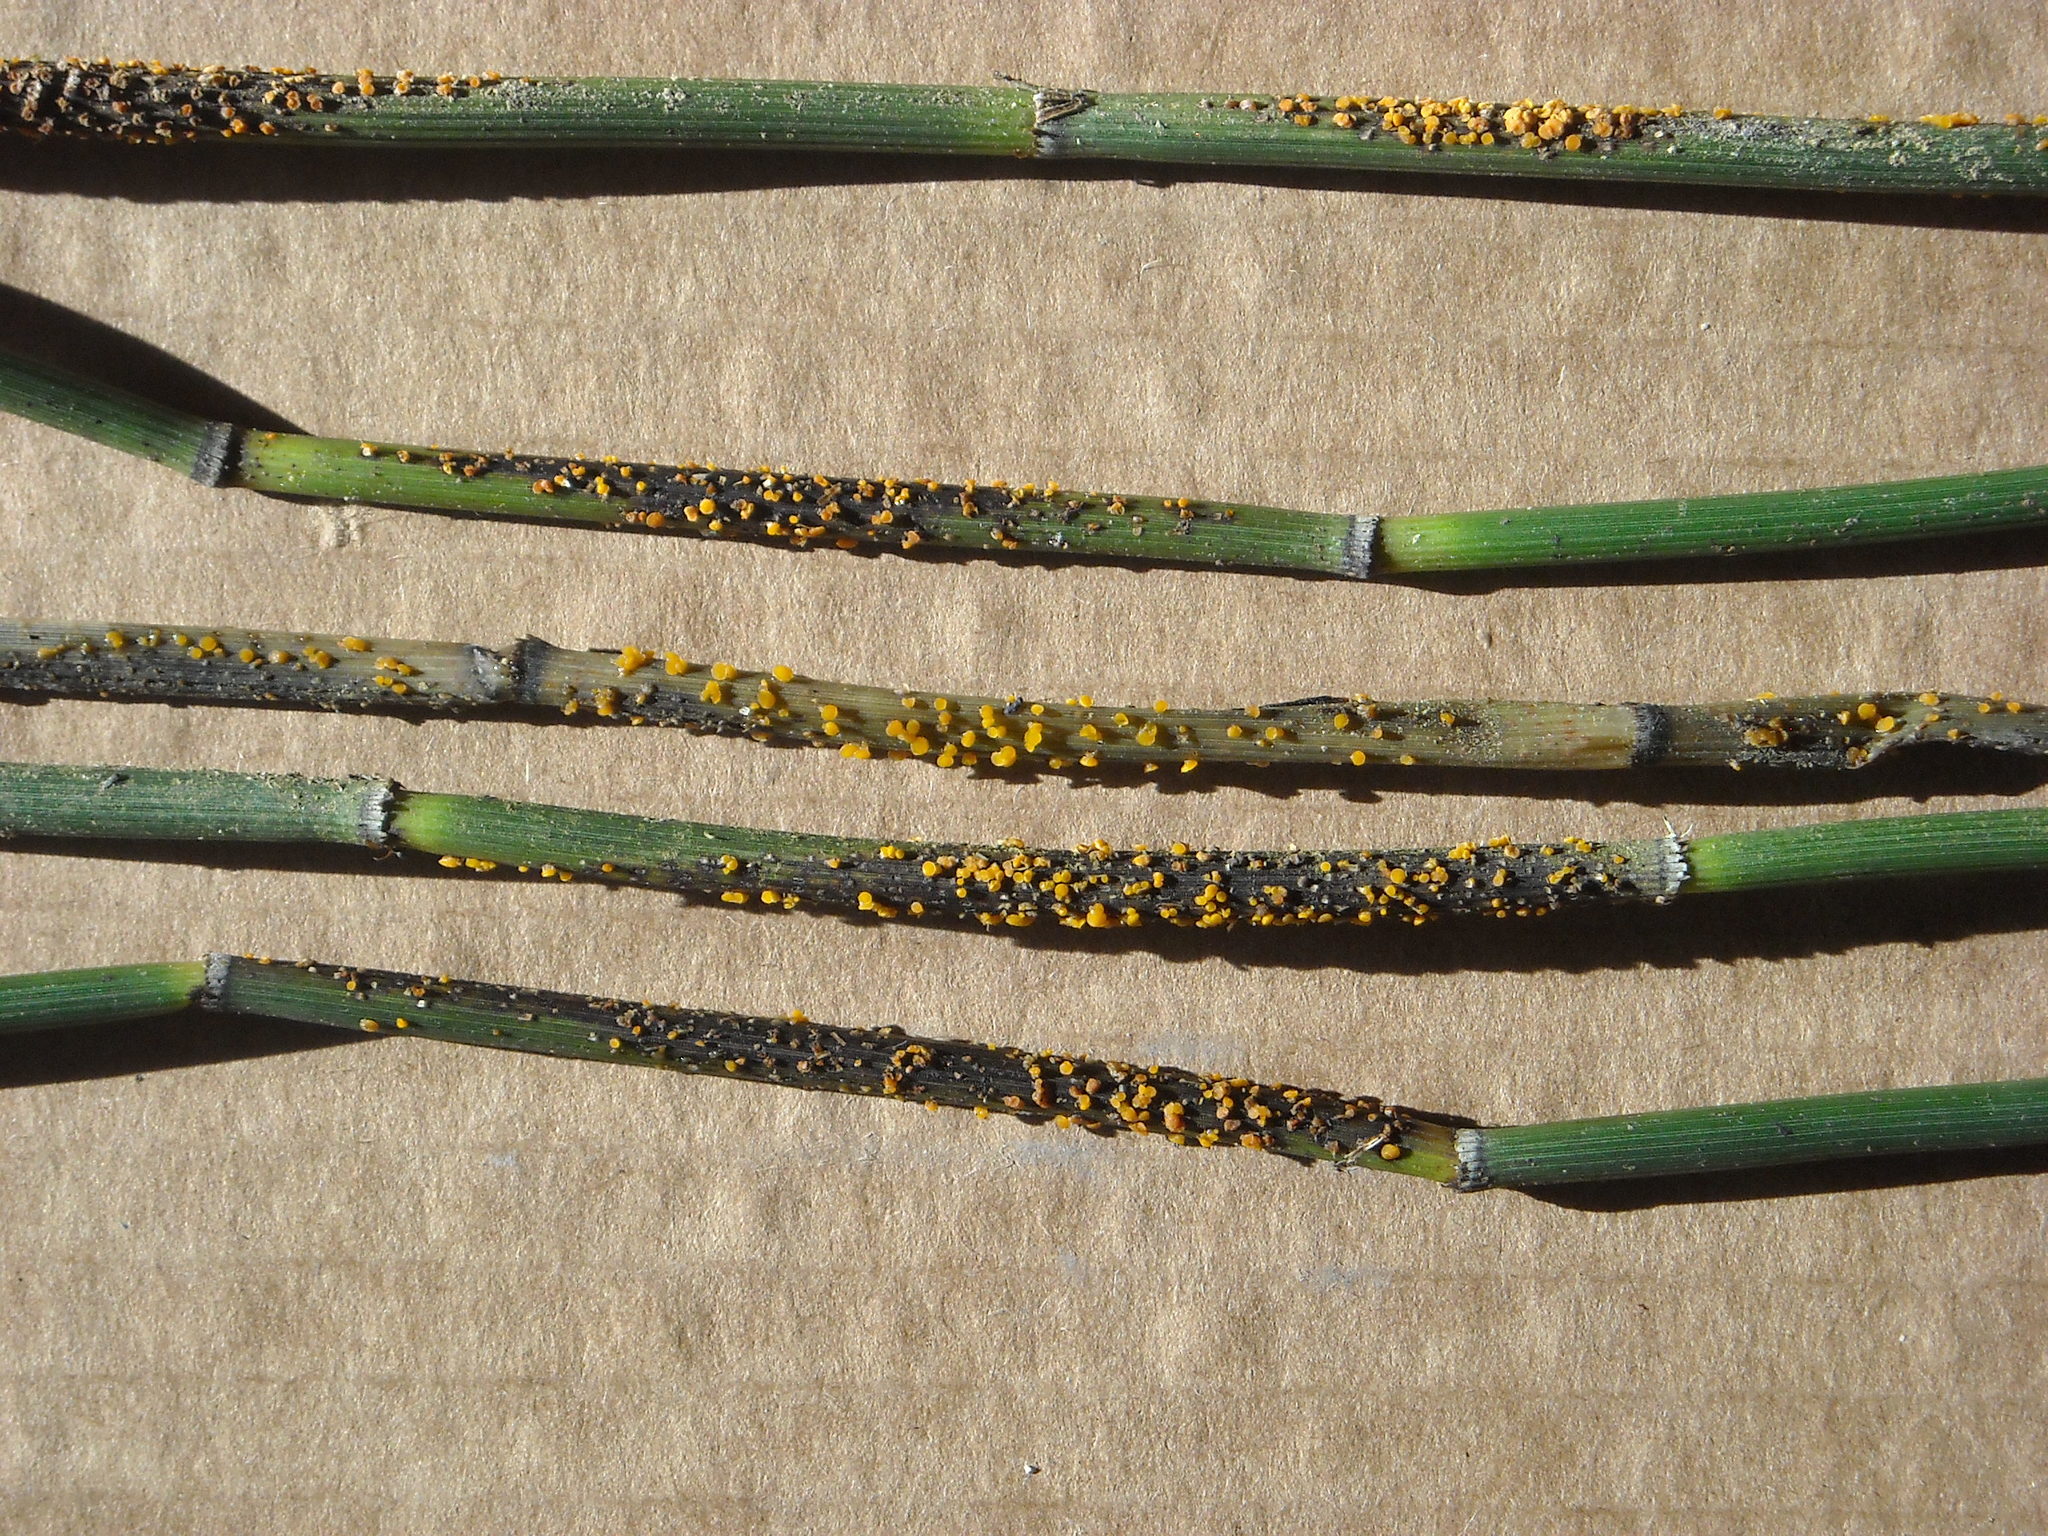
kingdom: Fungi
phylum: Ascomycota
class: Leotiomycetes
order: Helotiales
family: Helotiaceae
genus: Stamnaria
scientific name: Stamnaria americana
